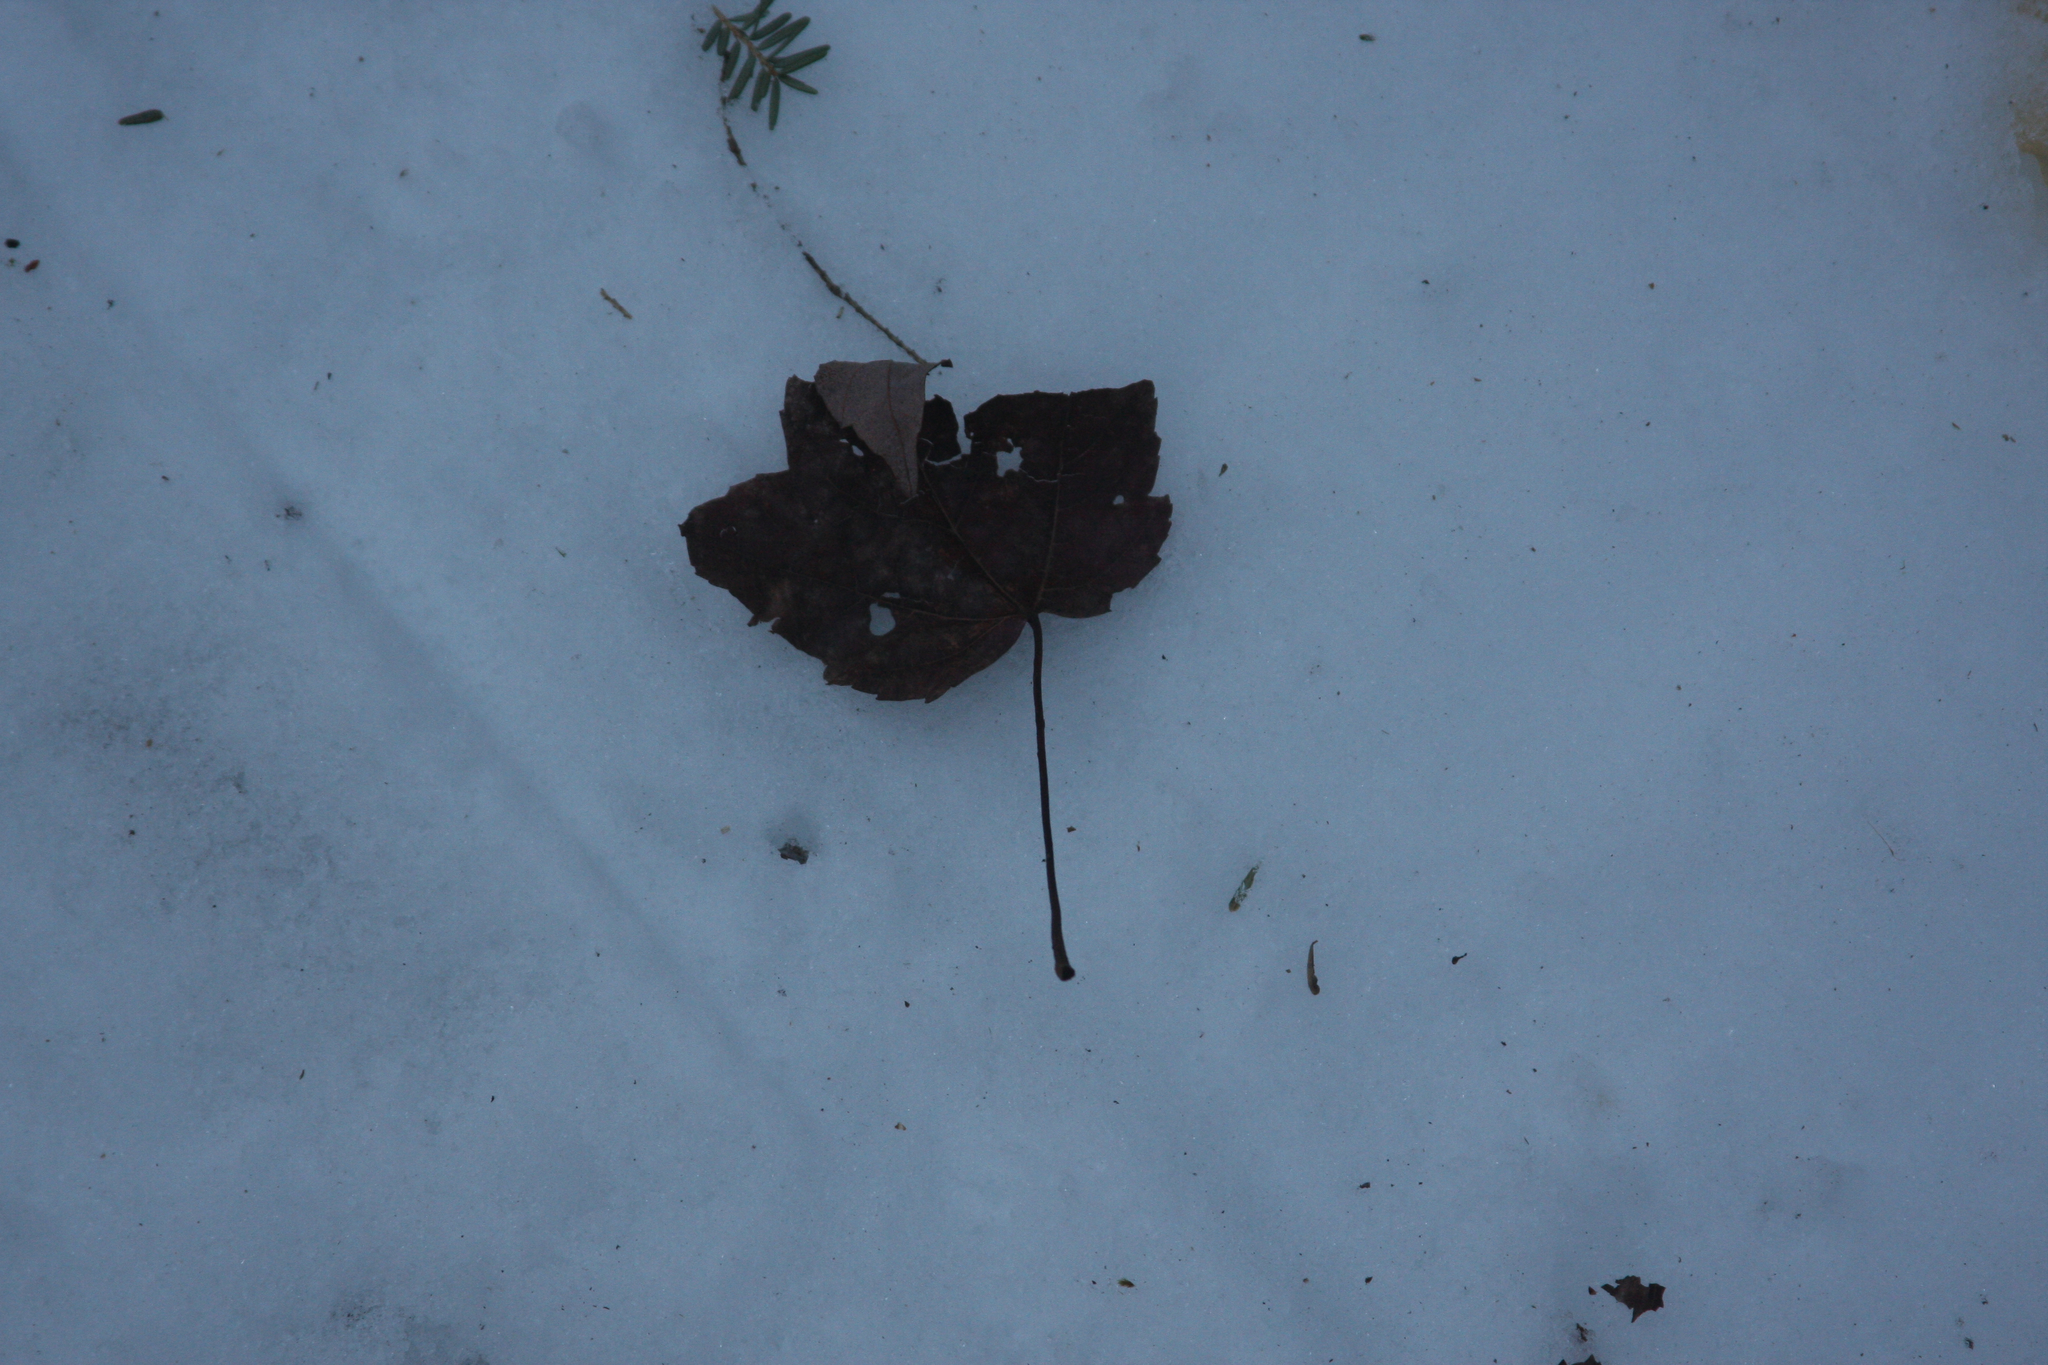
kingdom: Plantae
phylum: Tracheophyta
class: Magnoliopsida
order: Sapindales
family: Sapindaceae
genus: Acer
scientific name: Acer rubrum
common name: Red maple
